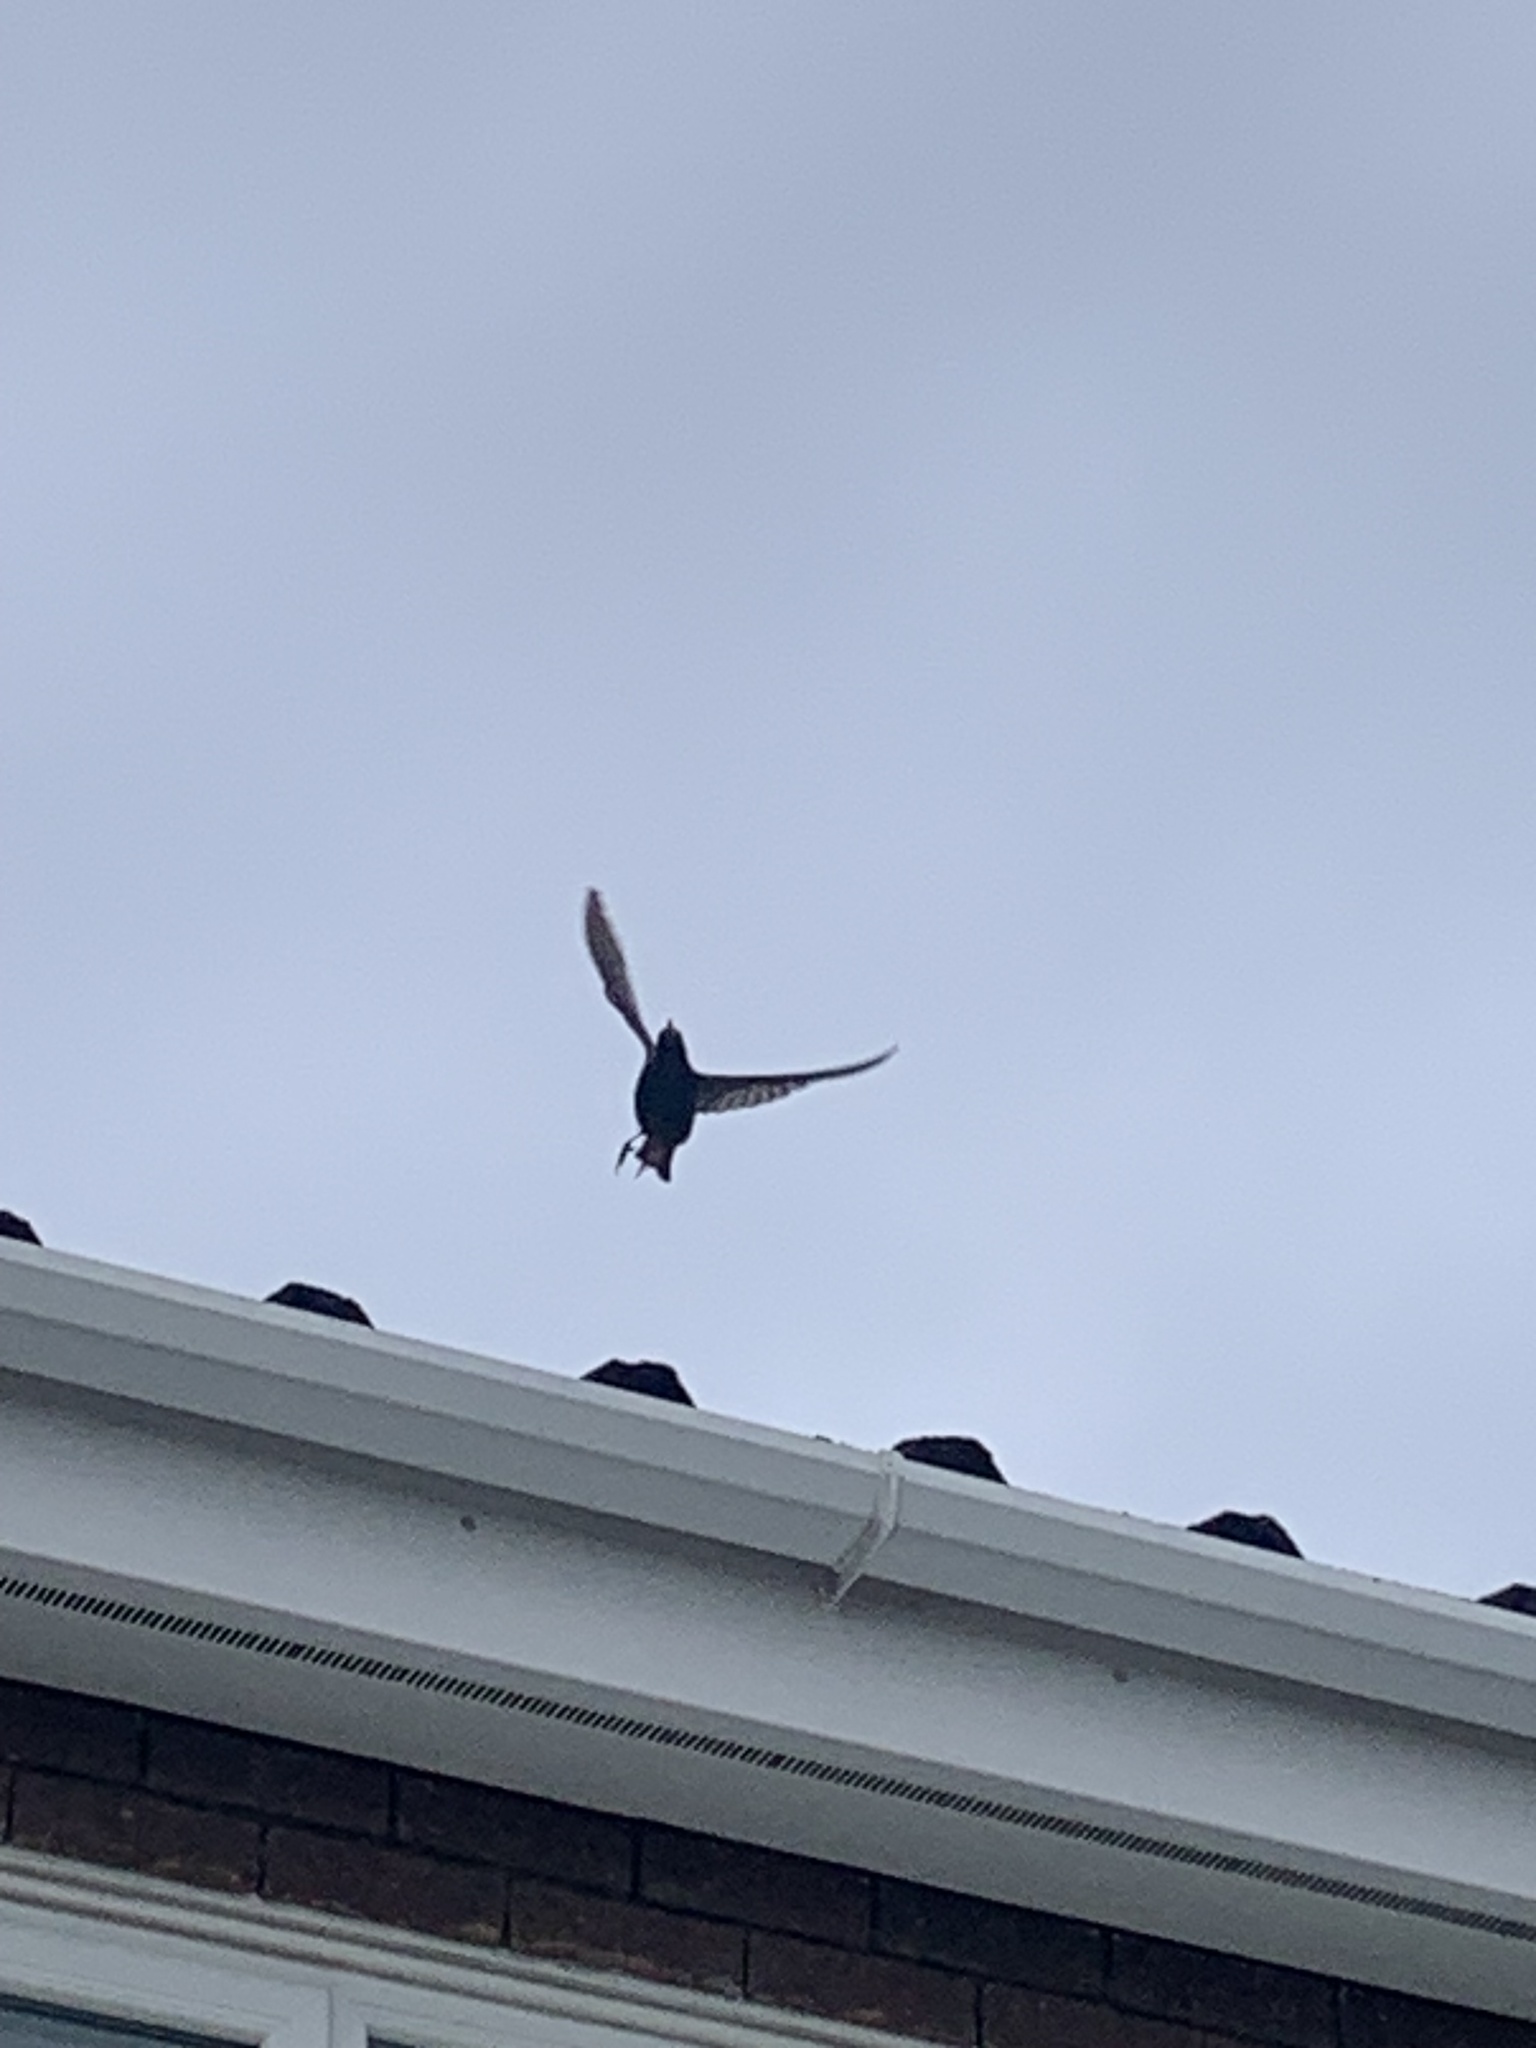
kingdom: Animalia
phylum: Chordata
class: Aves
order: Passeriformes
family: Sturnidae
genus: Sturnus
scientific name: Sturnus vulgaris
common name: Common starling
